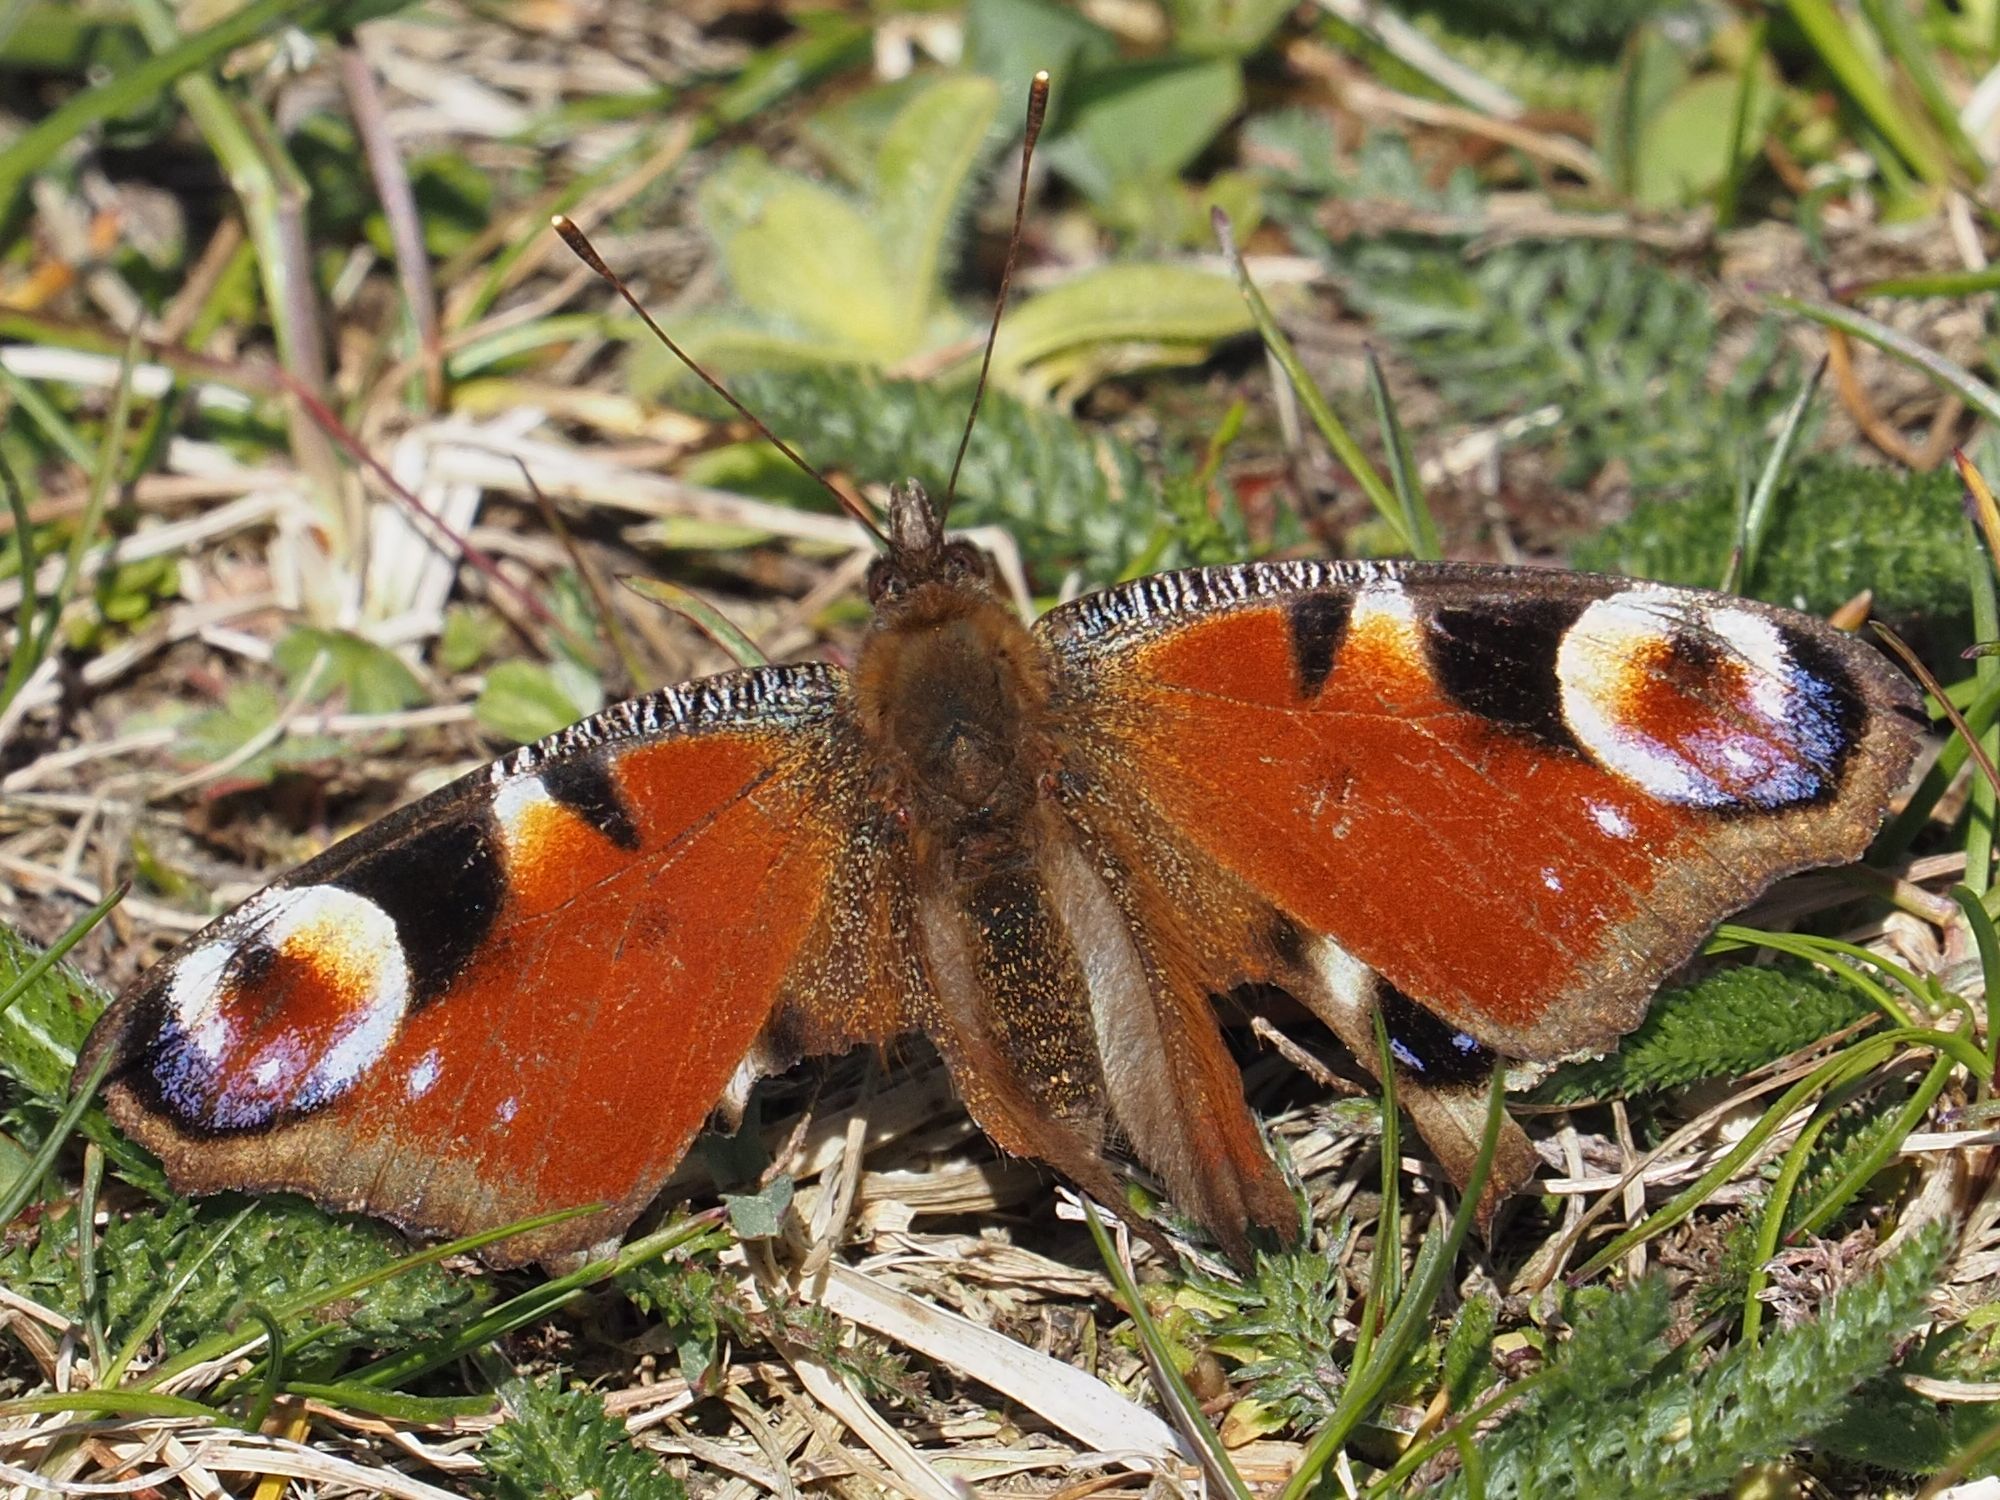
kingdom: Animalia
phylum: Arthropoda
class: Insecta
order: Lepidoptera
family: Nymphalidae
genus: Aglais
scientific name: Aglais io
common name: Peacock
